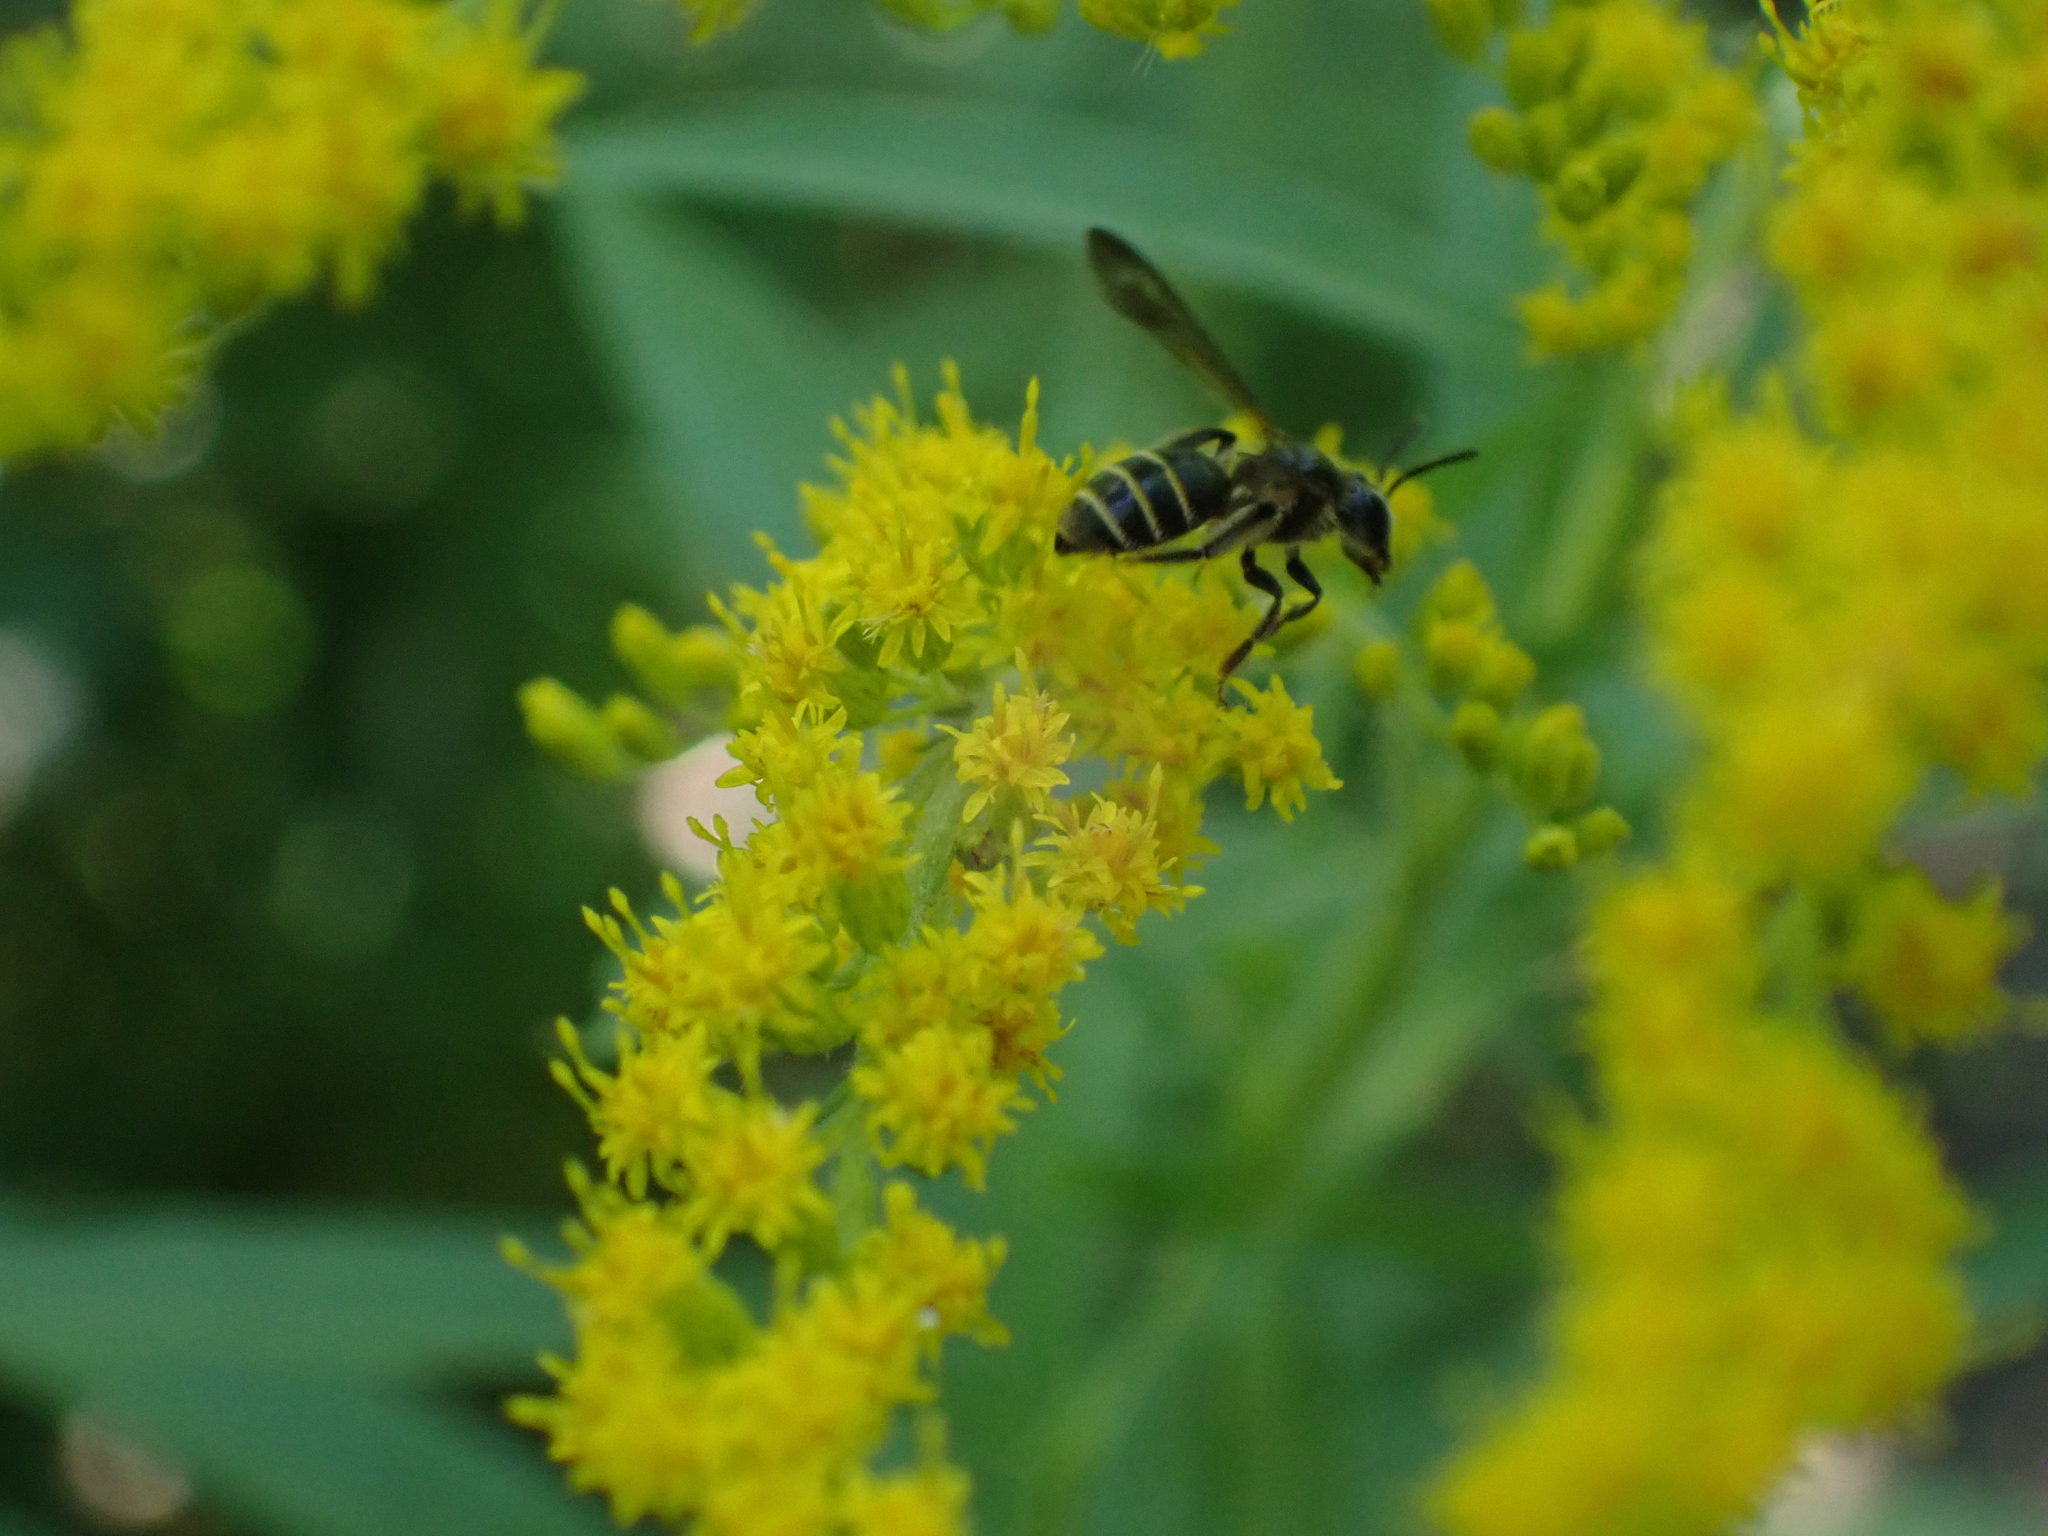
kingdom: Animalia
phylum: Arthropoda
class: Insecta
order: Hymenoptera
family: Andrenidae
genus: Andrena
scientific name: Andrena nubecula
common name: Cloudy-winged mining bee
